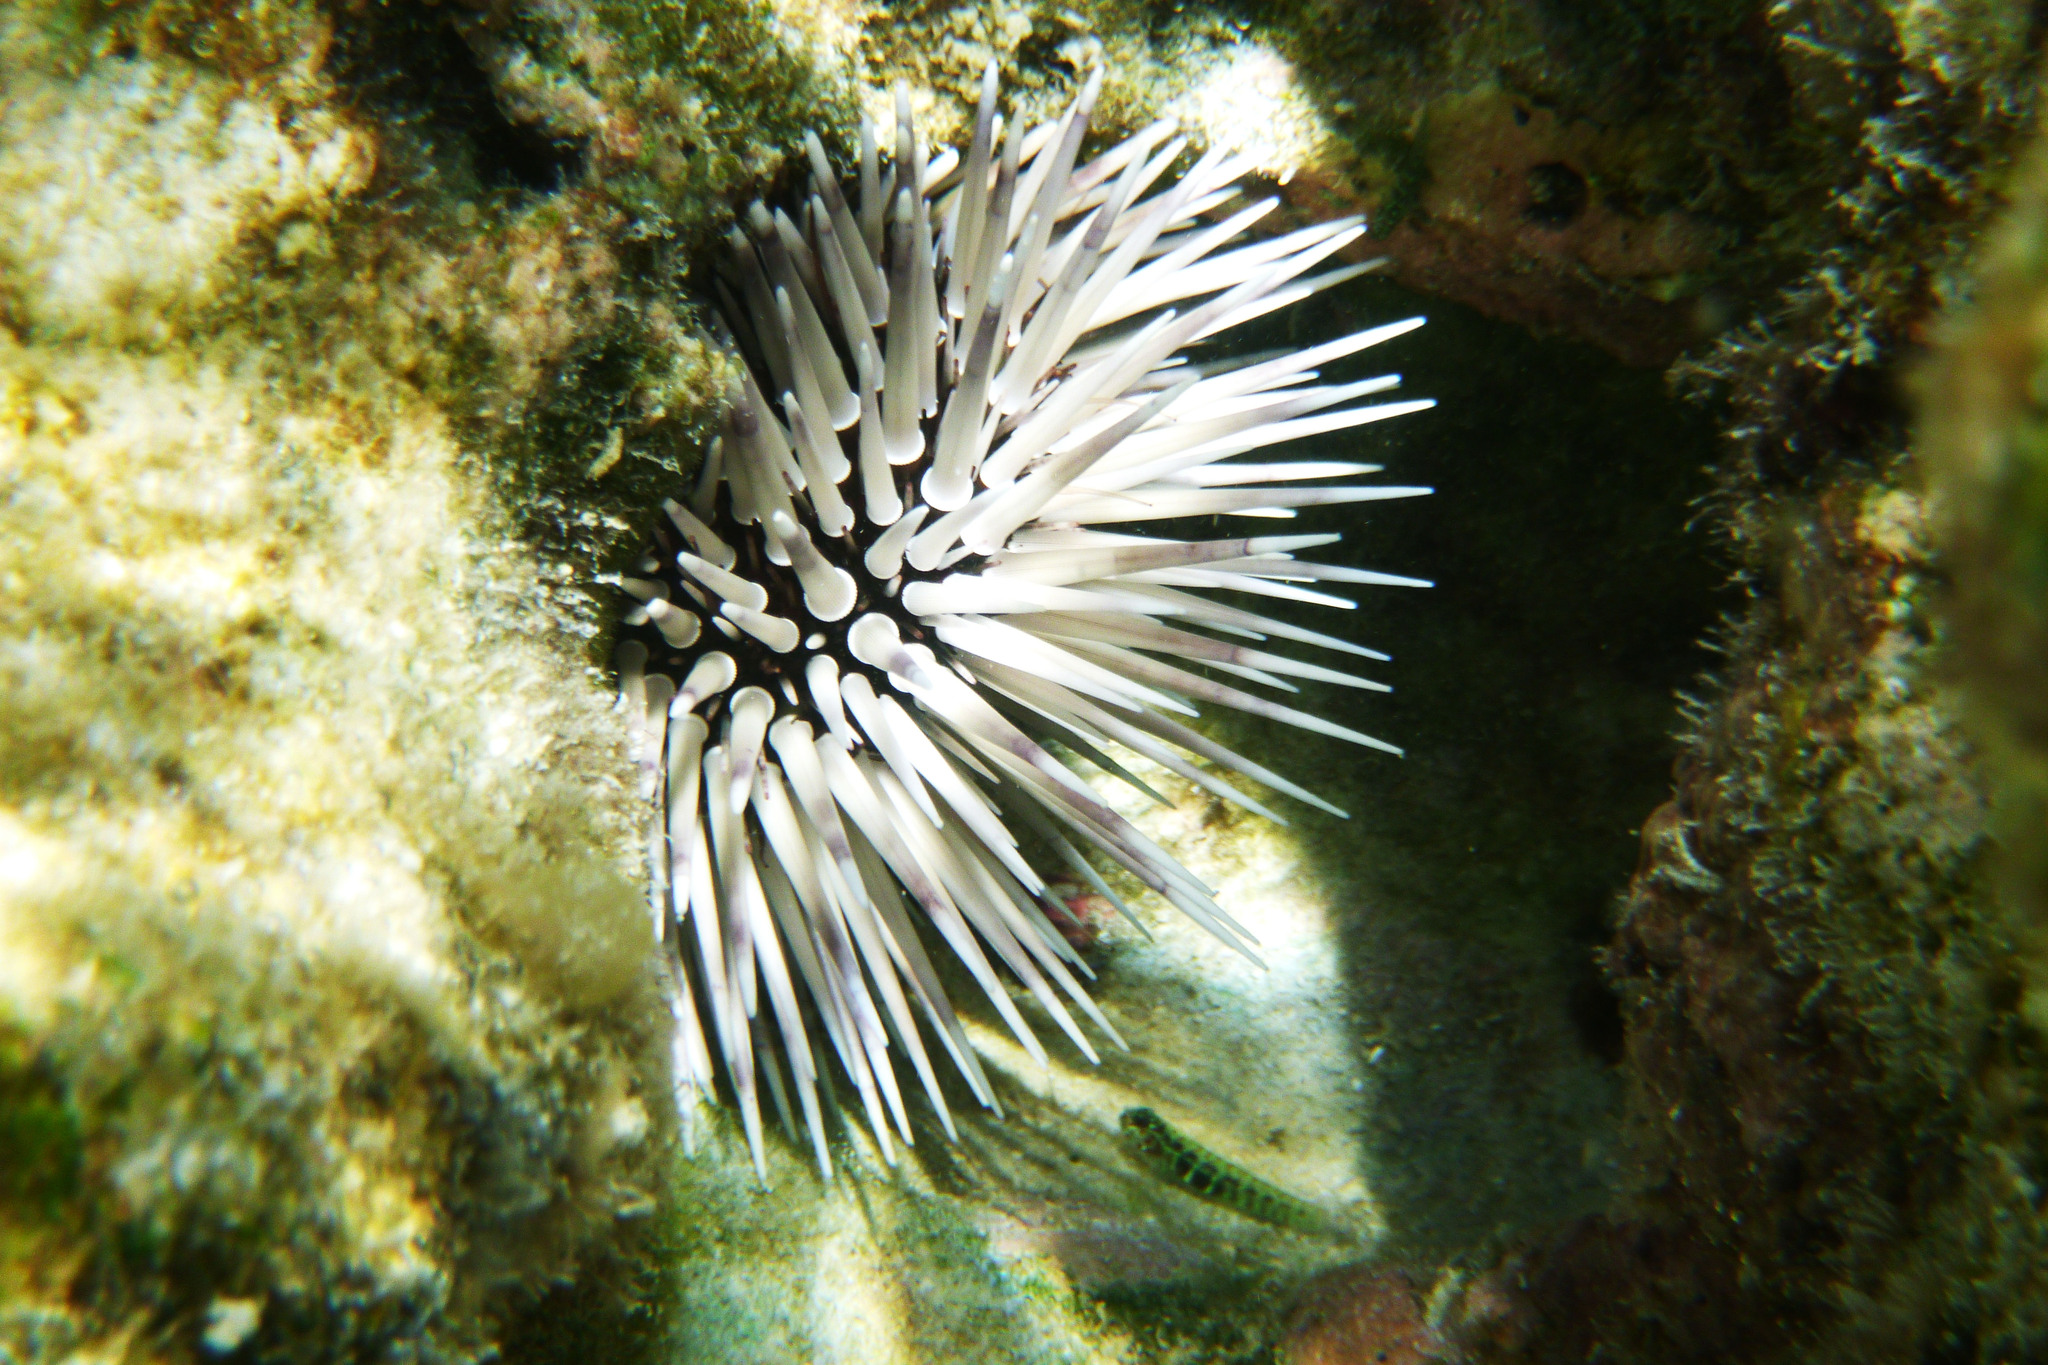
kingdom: Animalia
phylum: Echinodermata
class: Echinoidea
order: Camarodonta
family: Echinometridae
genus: Echinometra
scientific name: Echinometra mathaei
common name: Rock-boring urchin
